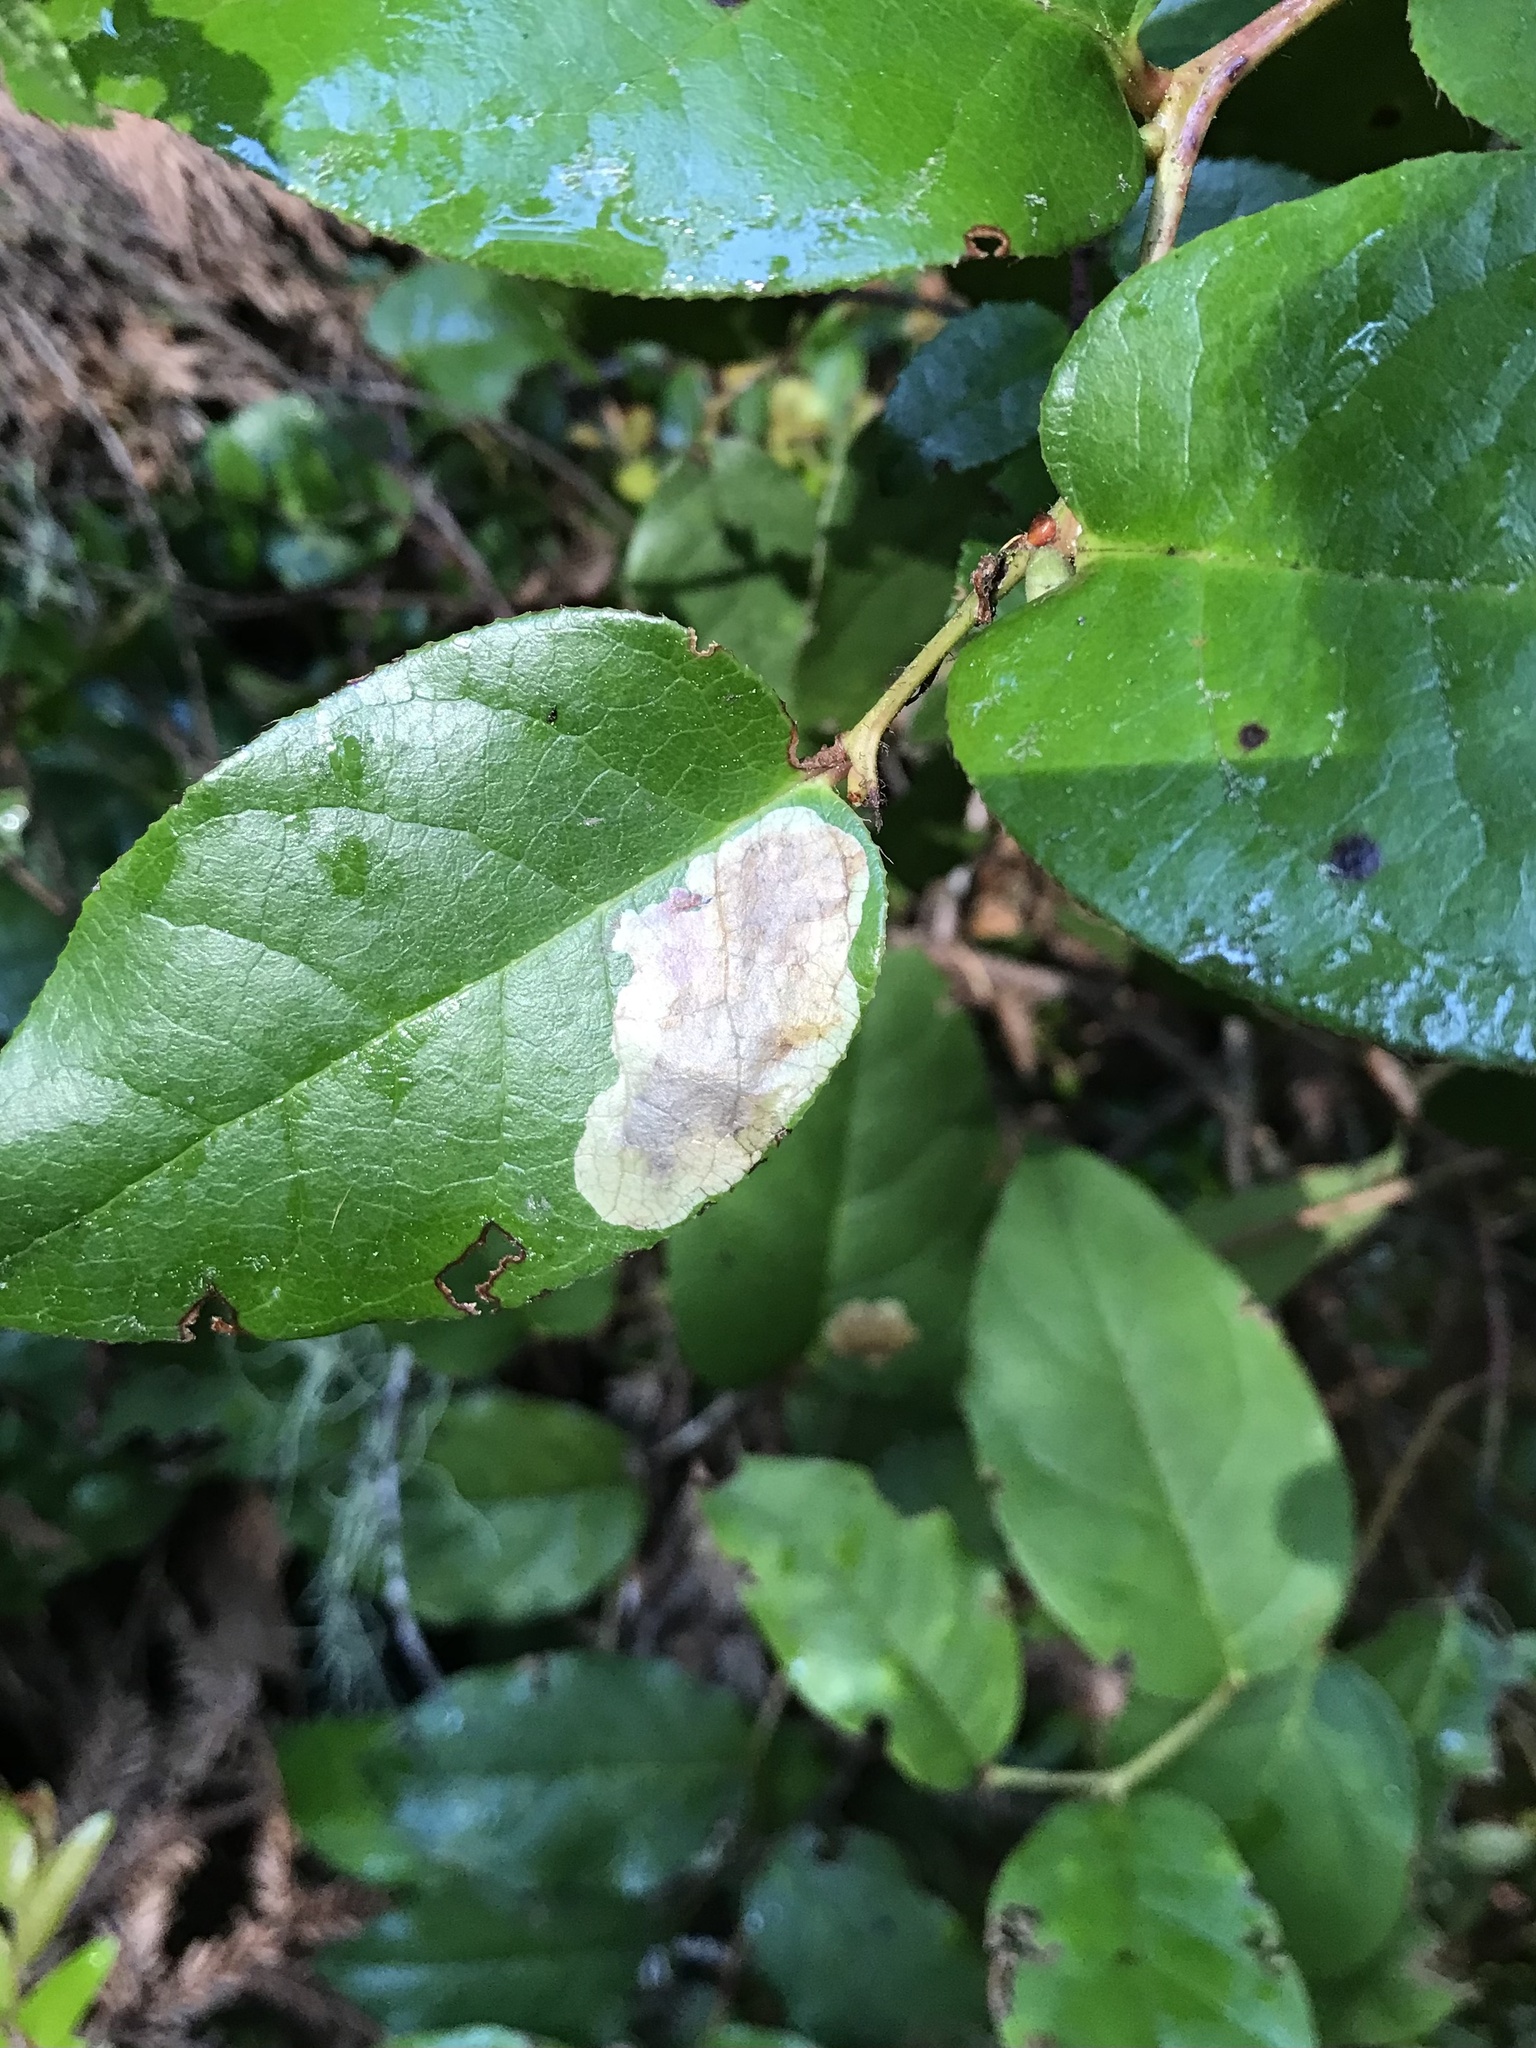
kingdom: Animalia
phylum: Arthropoda
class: Insecta
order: Lepidoptera
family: Gracillariidae
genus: Cameraria
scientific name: Cameraria gaultheriella
